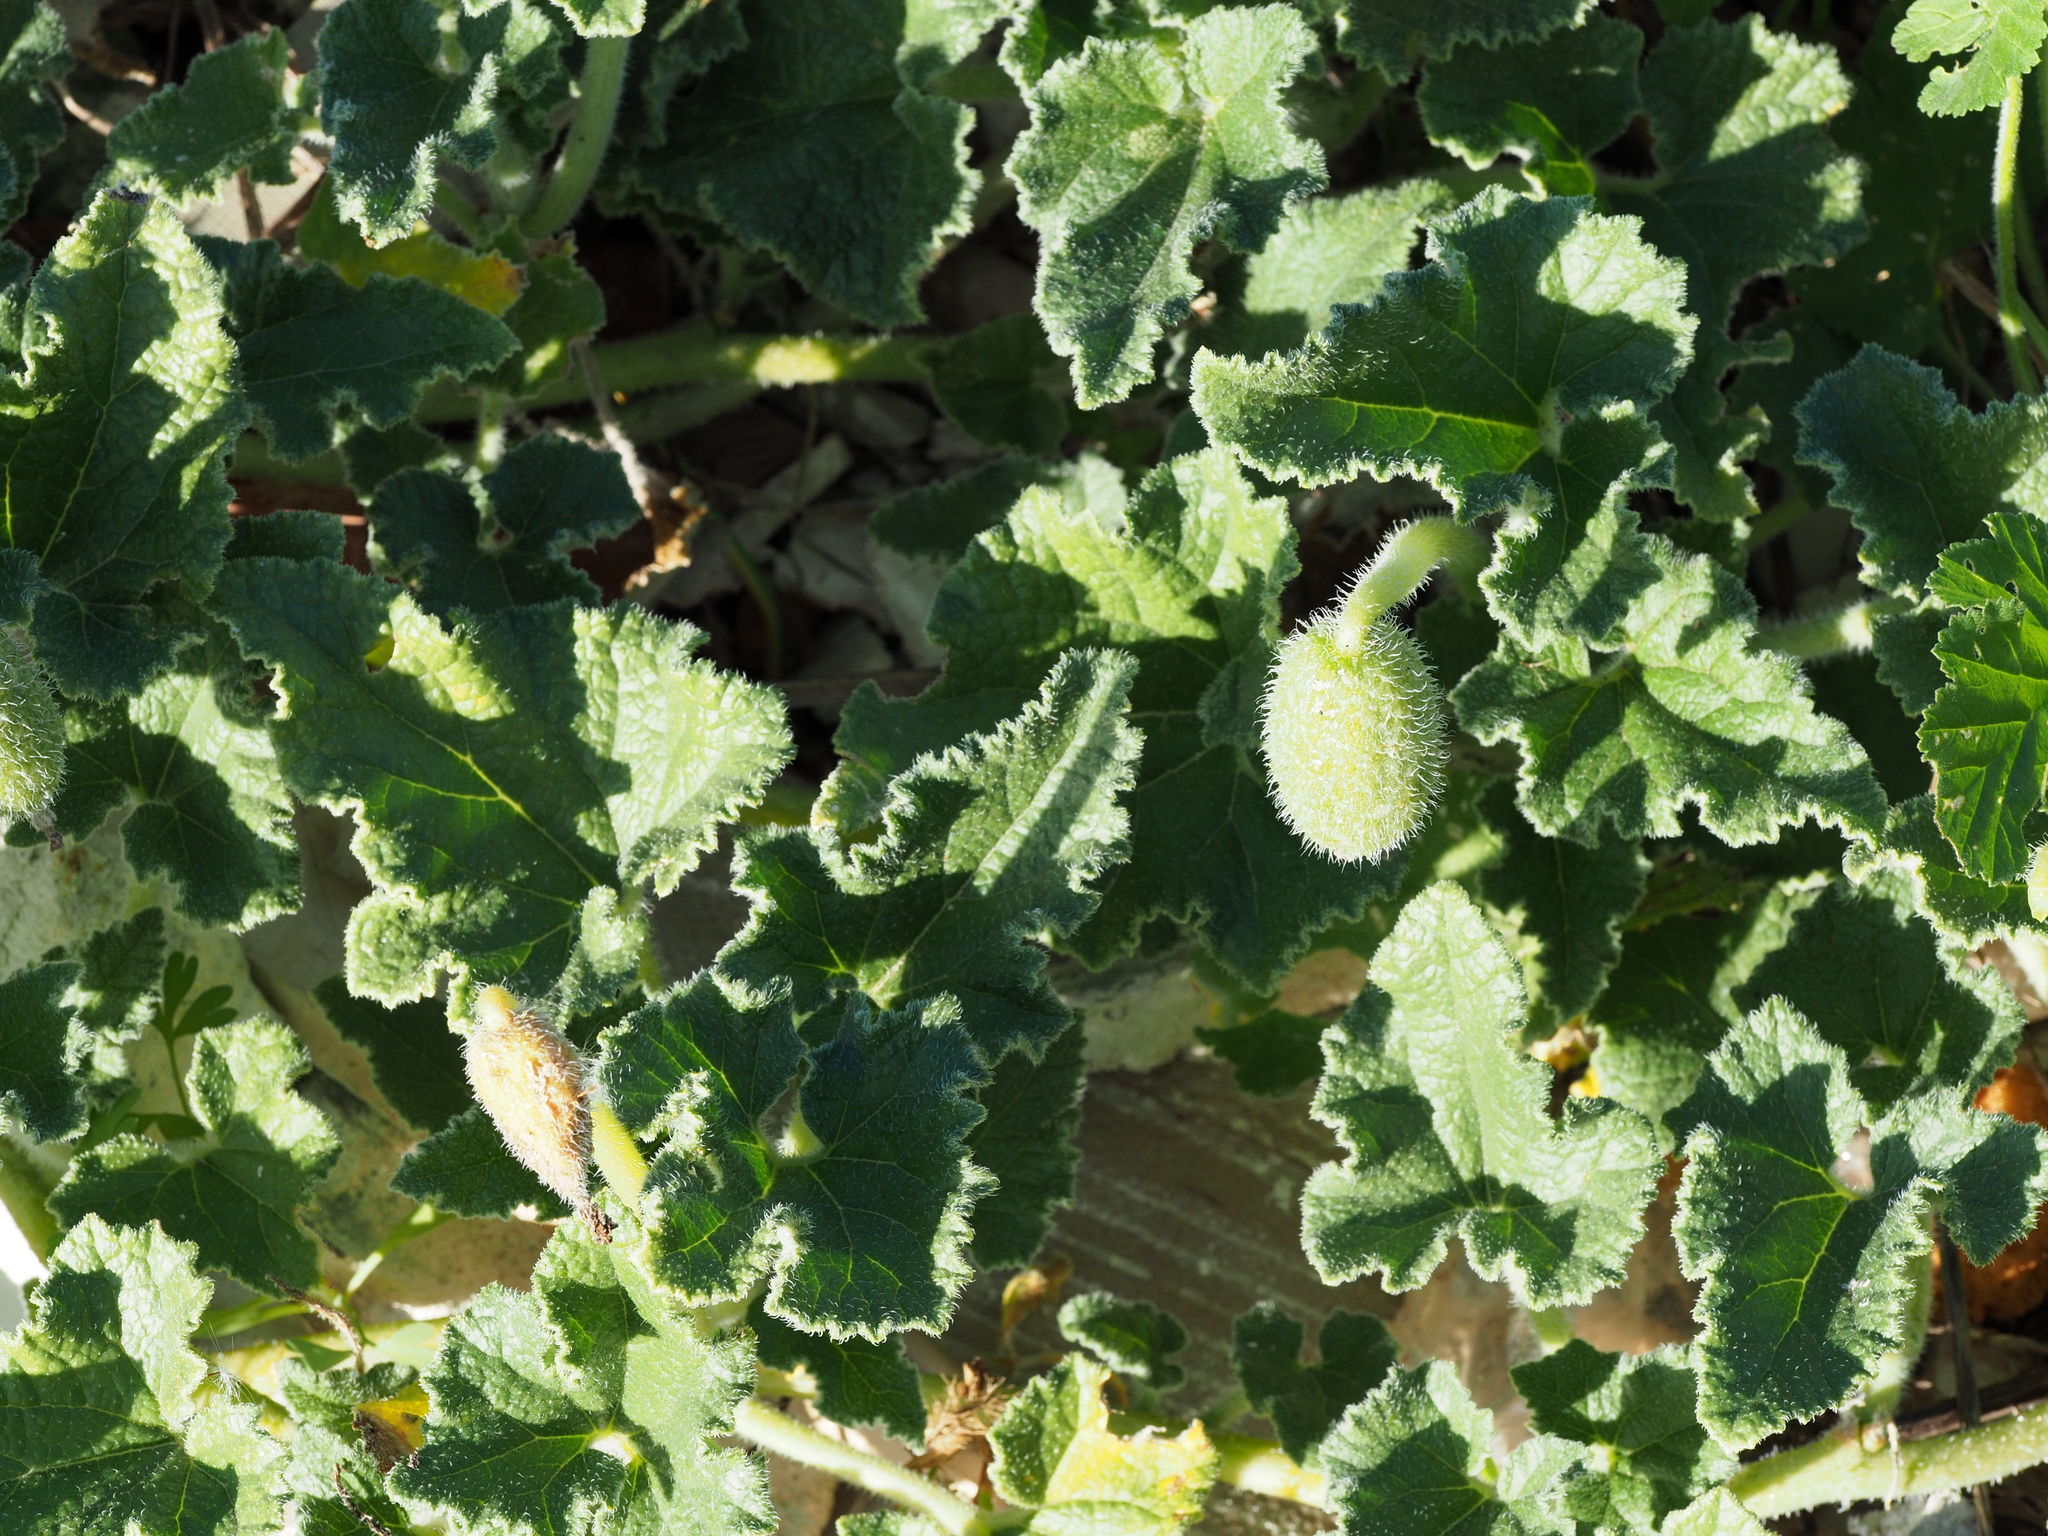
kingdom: Plantae
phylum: Tracheophyta
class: Magnoliopsida
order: Cucurbitales
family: Cucurbitaceae
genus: Ecballium
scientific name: Ecballium elaterium
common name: Squirting cucumber
